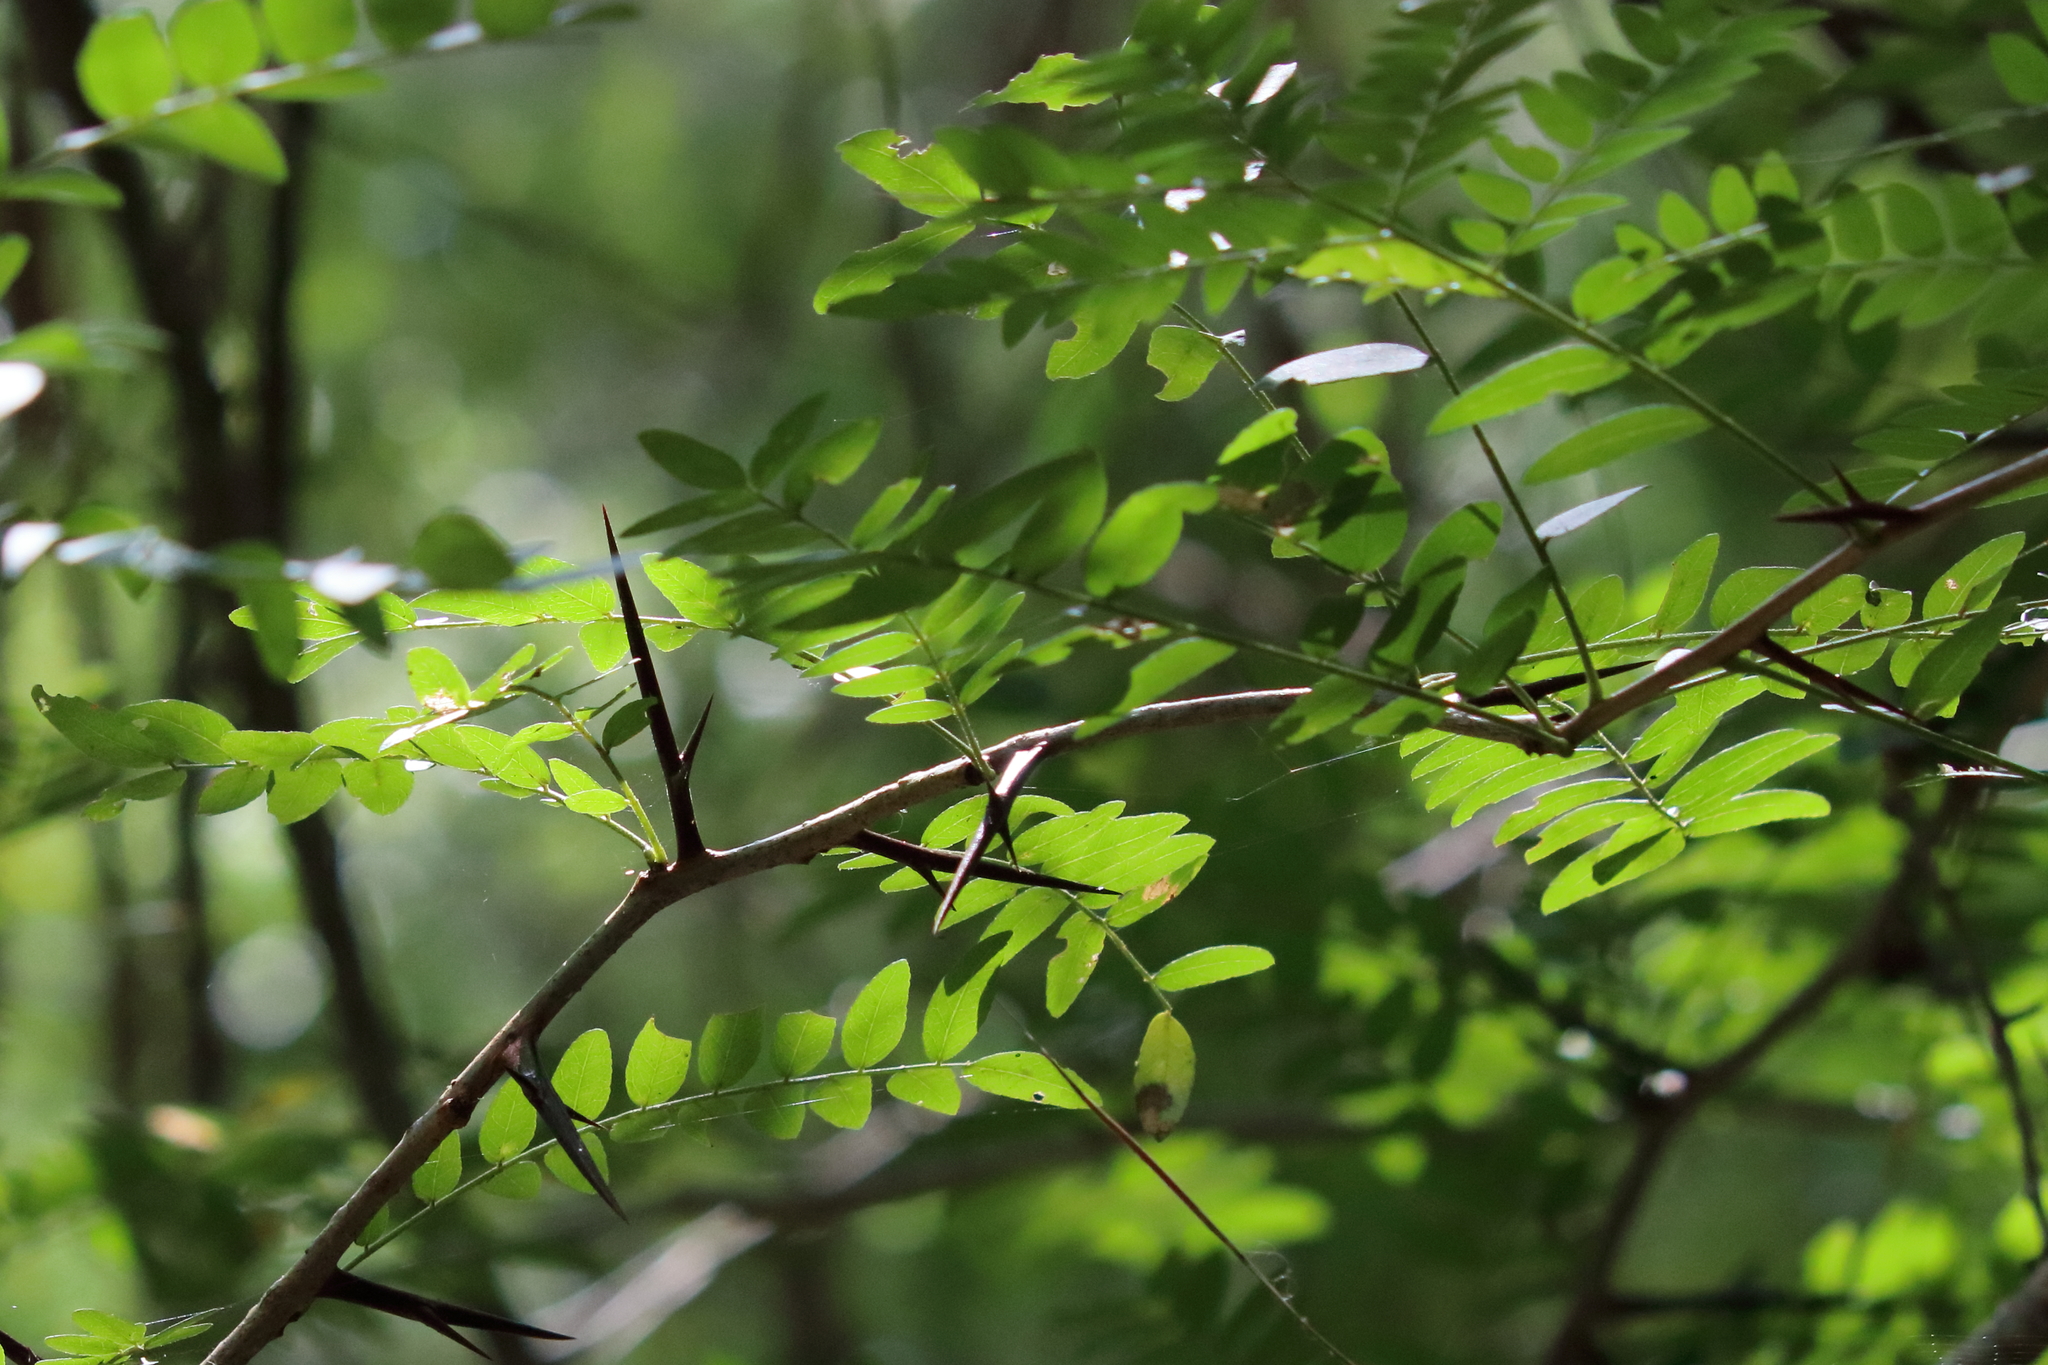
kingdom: Plantae
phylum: Tracheophyta
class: Magnoliopsida
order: Fabales
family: Fabaceae
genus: Gleditsia
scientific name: Gleditsia triacanthos
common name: Common honeylocust
